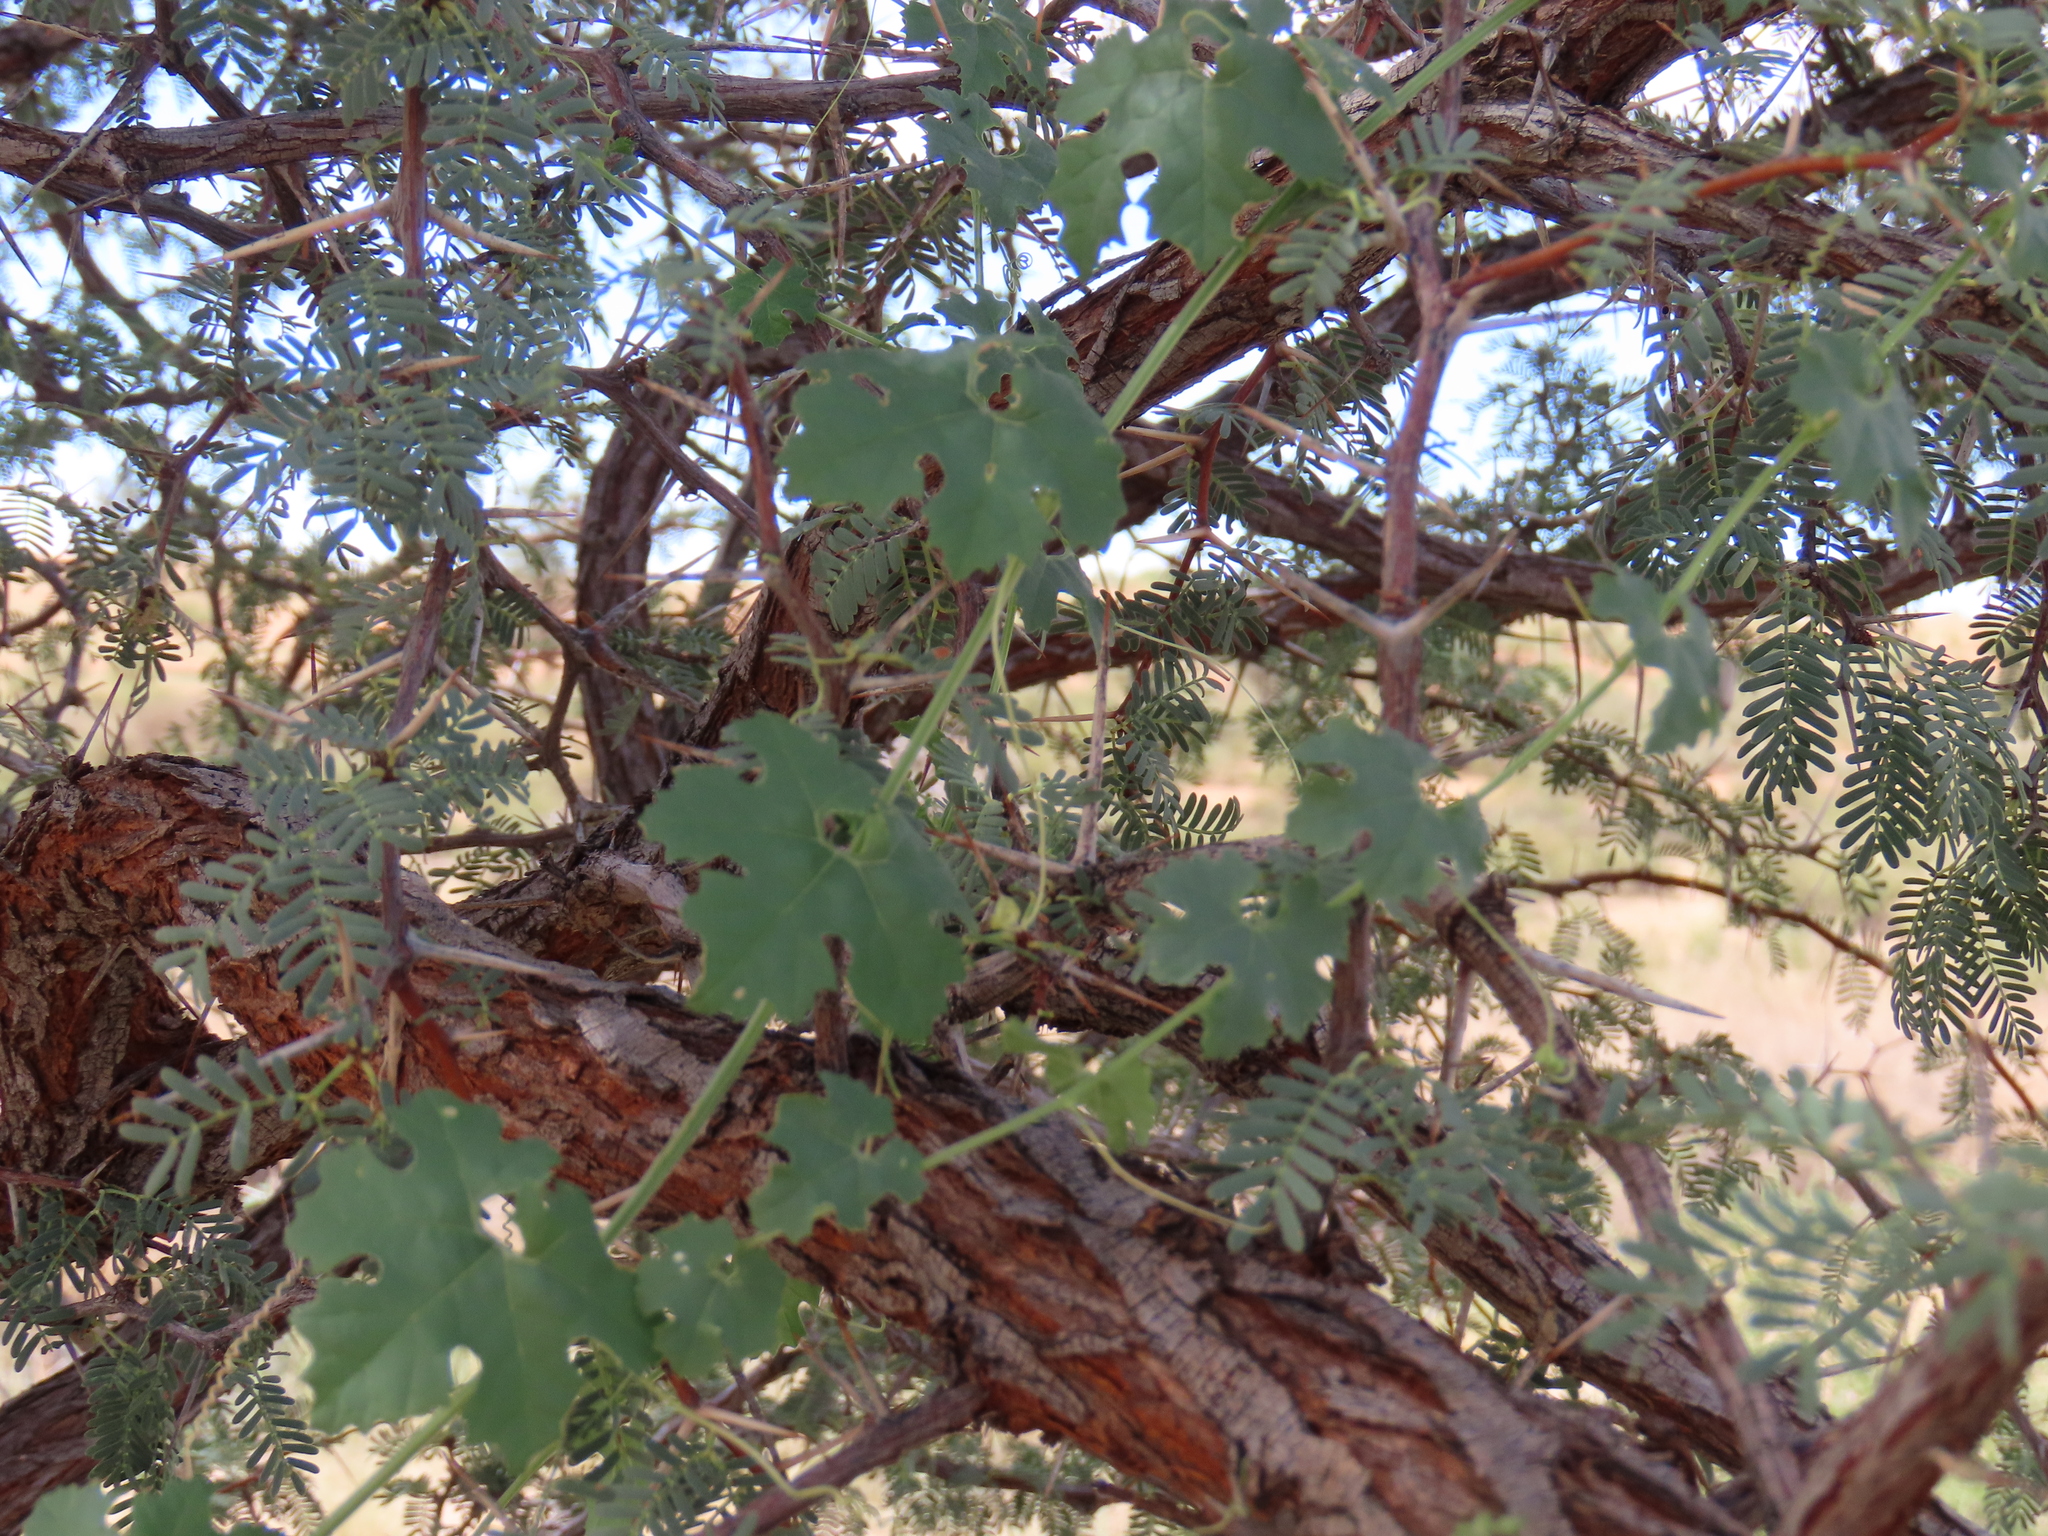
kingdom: Plantae
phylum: Tracheophyta
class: Magnoliopsida
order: Cucurbitales
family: Cucurbitaceae
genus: Momordica
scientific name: Momordica balsamina
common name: Southern balsampear
